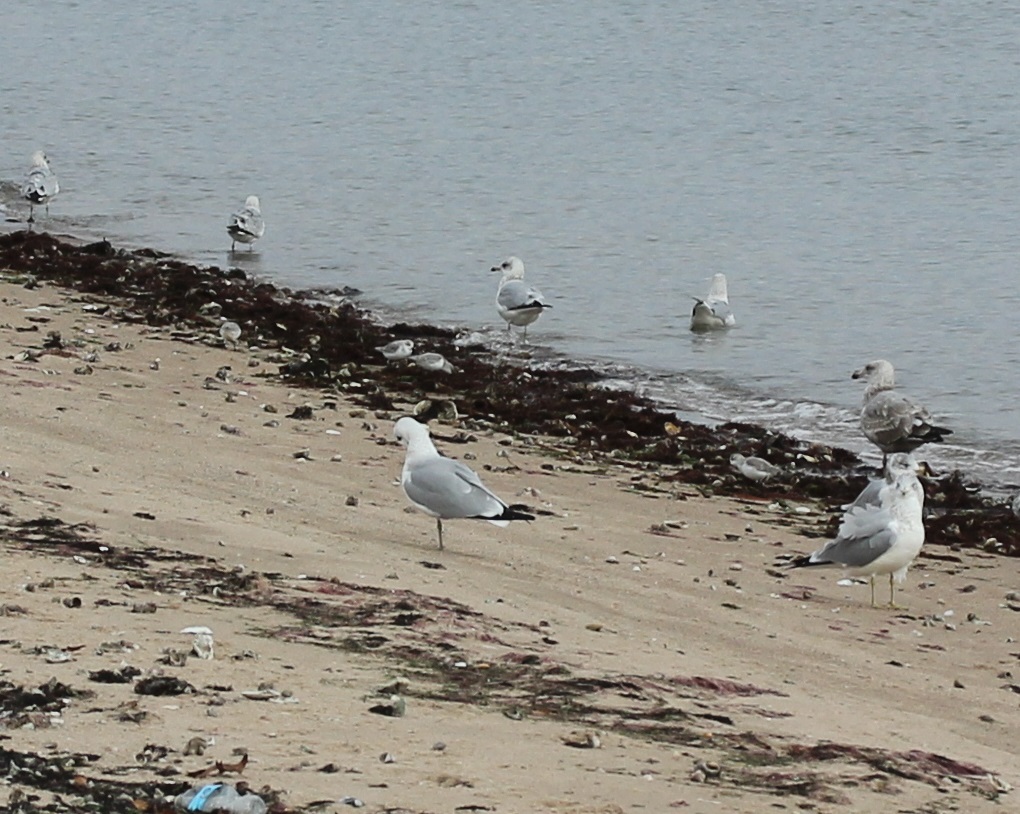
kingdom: Animalia
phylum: Chordata
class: Aves
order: Charadriiformes
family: Scolopacidae
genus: Calidris
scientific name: Calidris alba
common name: Sanderling
